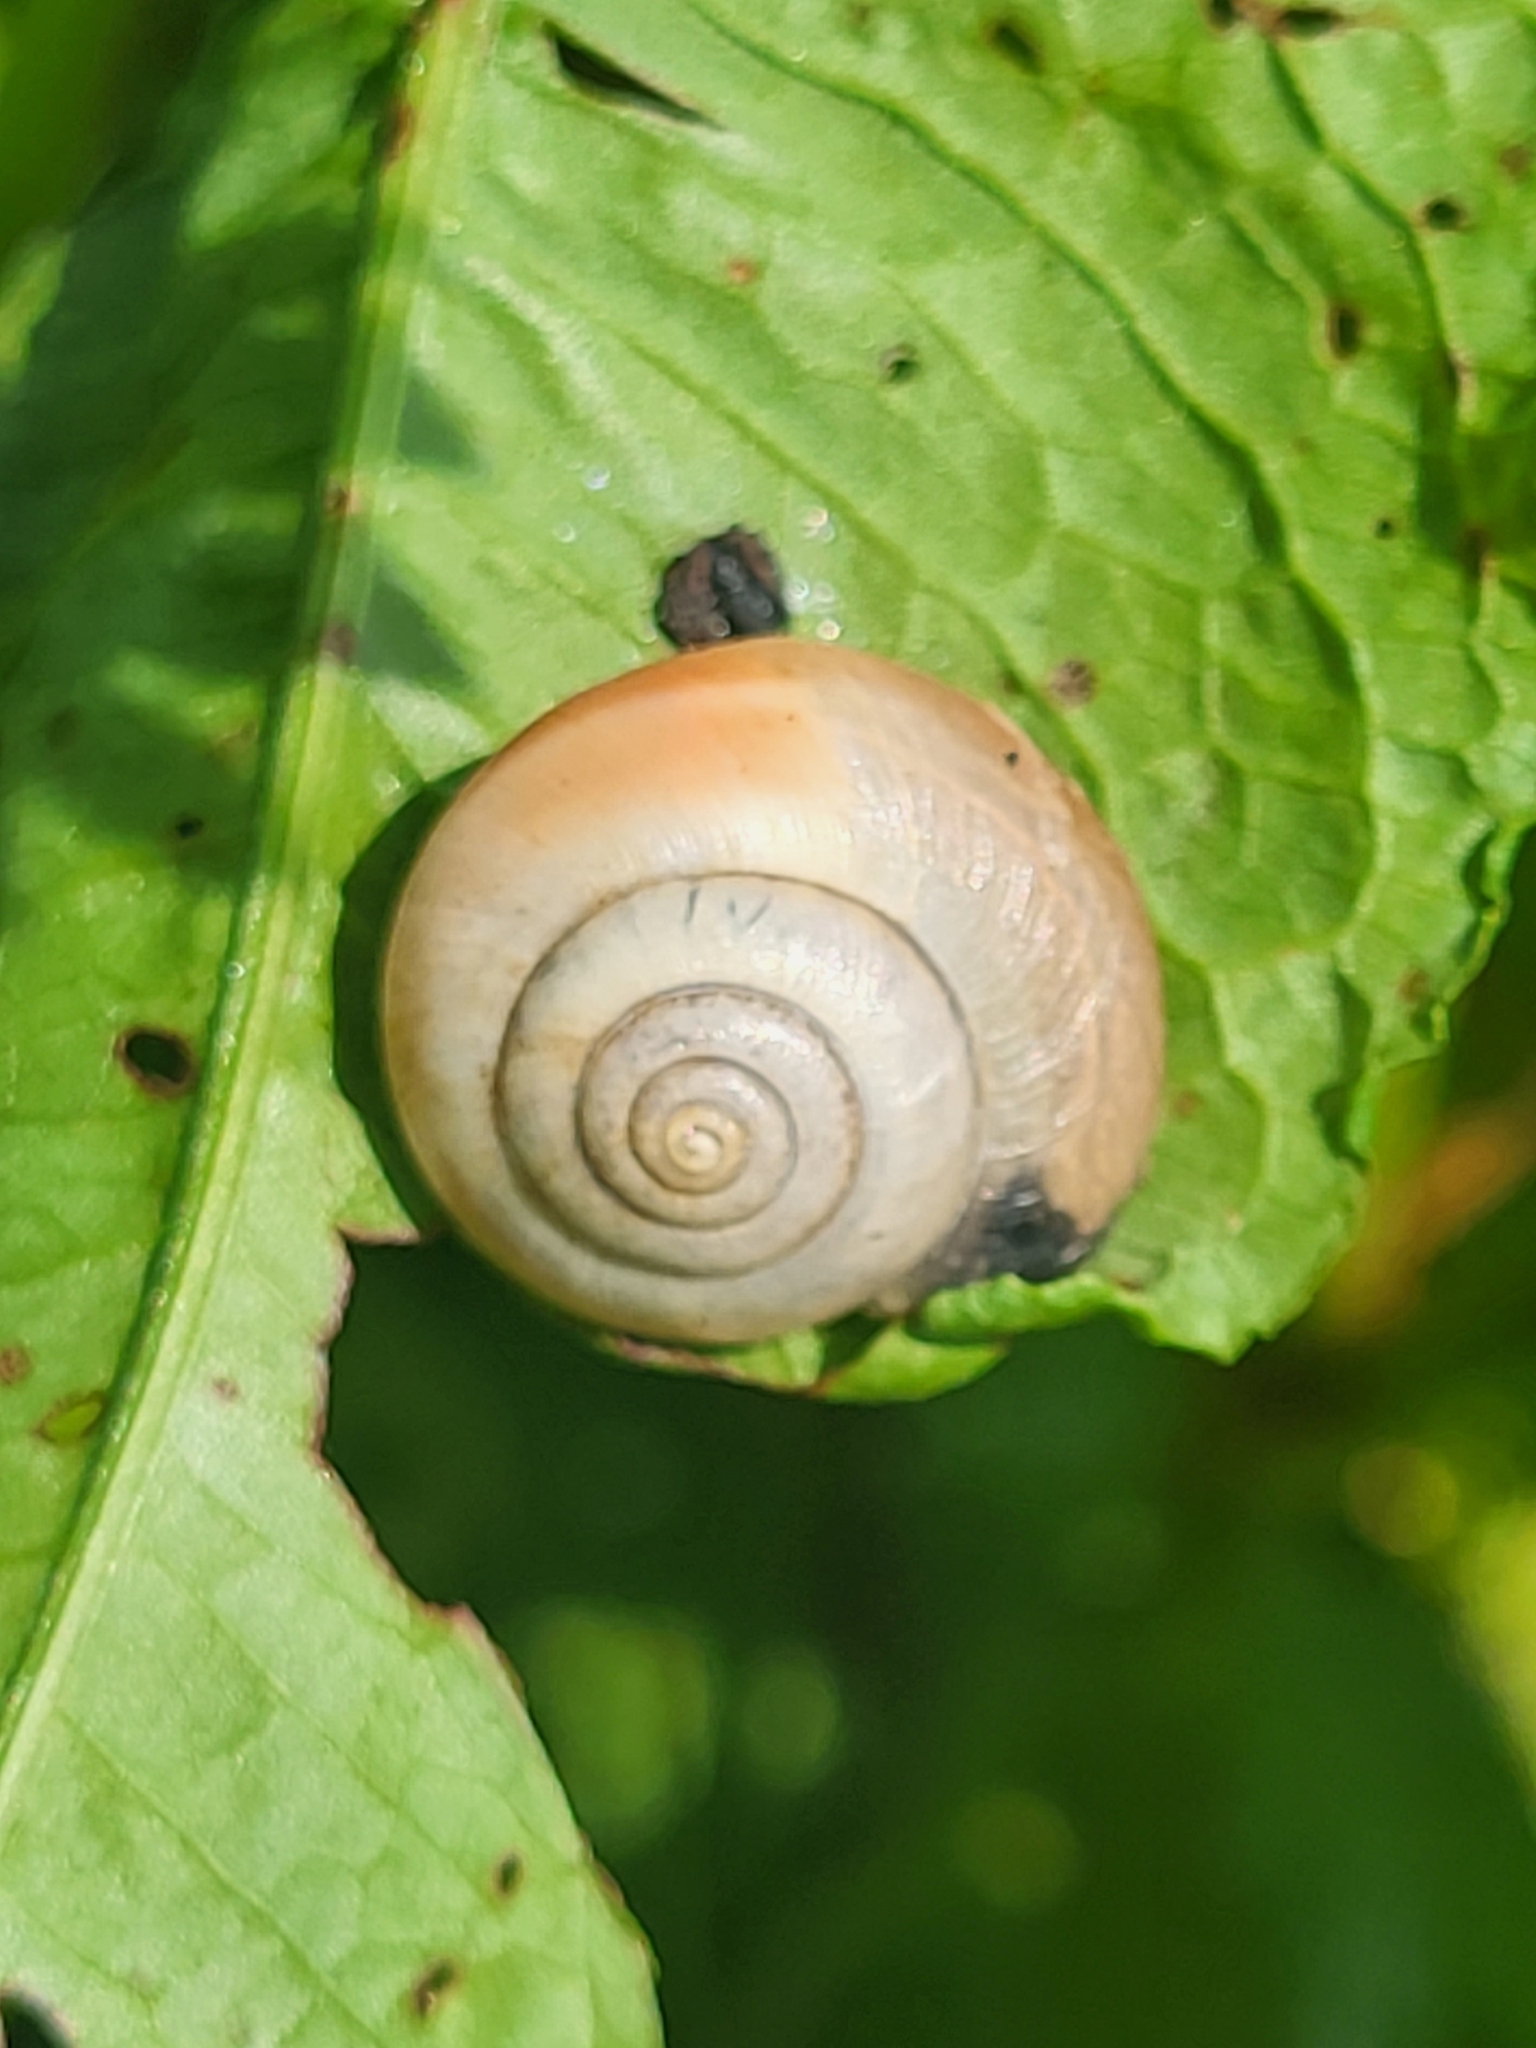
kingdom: Animalia
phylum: Mollusca
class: Gastropoda
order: Stylommatophora
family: Hygromiidae
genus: Monacha
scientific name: Monacha cantiana
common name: Kentish snail
